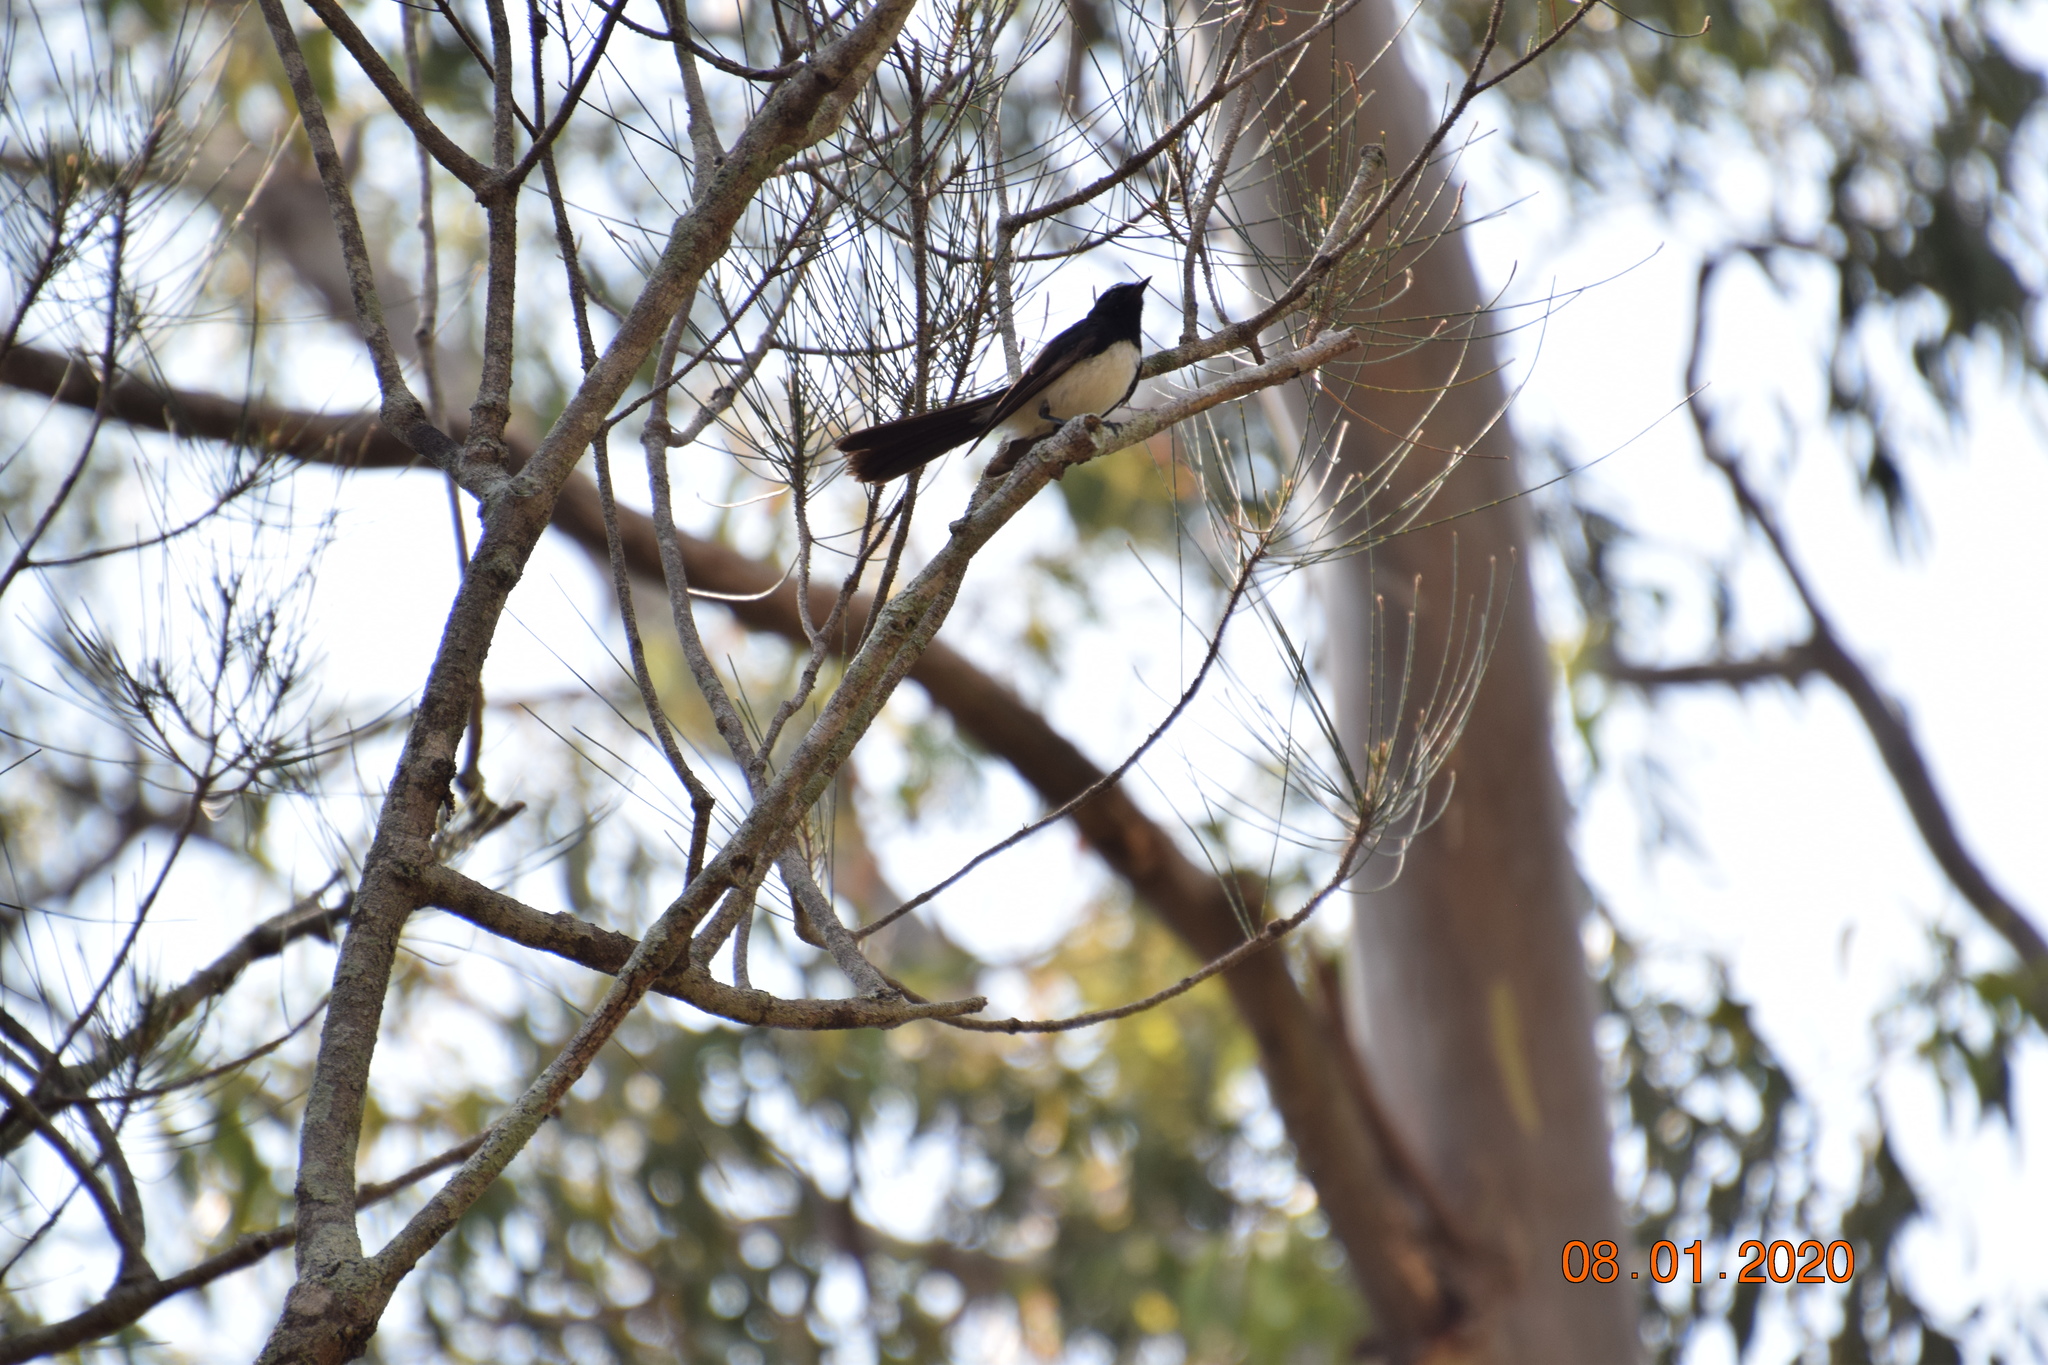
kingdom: Animalia
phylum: Chordata
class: Aves
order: Passeriformes
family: Rhipiduridae
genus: Rhipidura
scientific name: Rhipidura leucophrys
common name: Willie wagtail
